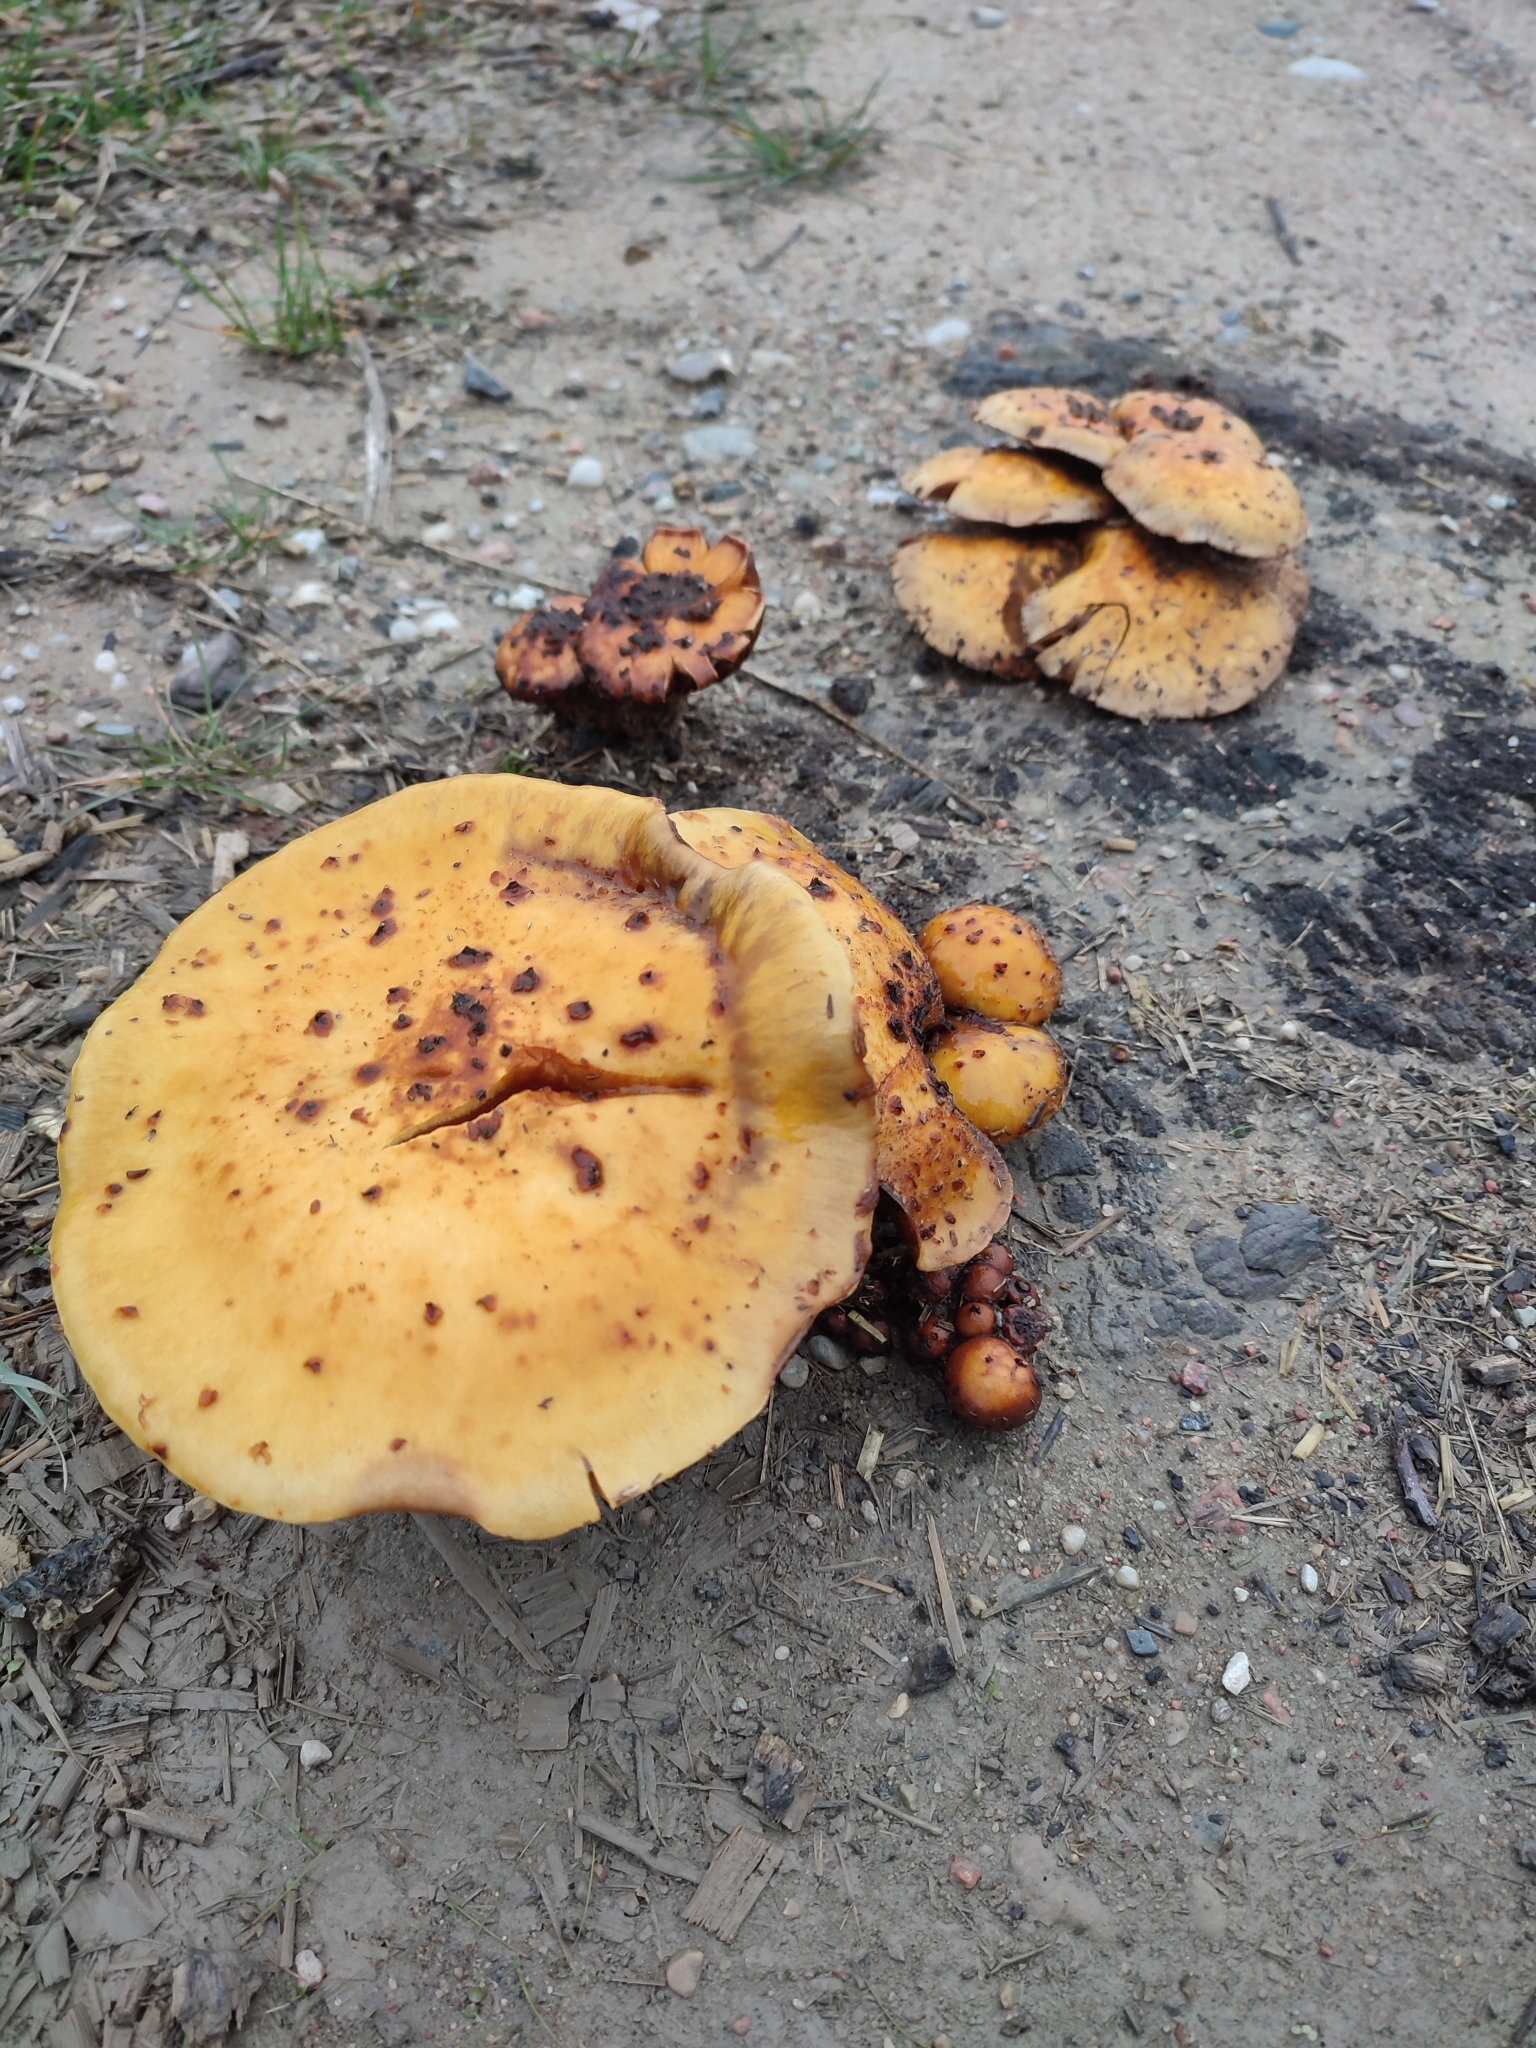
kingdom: Fungi
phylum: Basidiomycota
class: Agaricomycetes
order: Agaricales
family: Strophariaceae
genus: Pholiota
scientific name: Pholiota aurivella
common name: Golden scalycap
